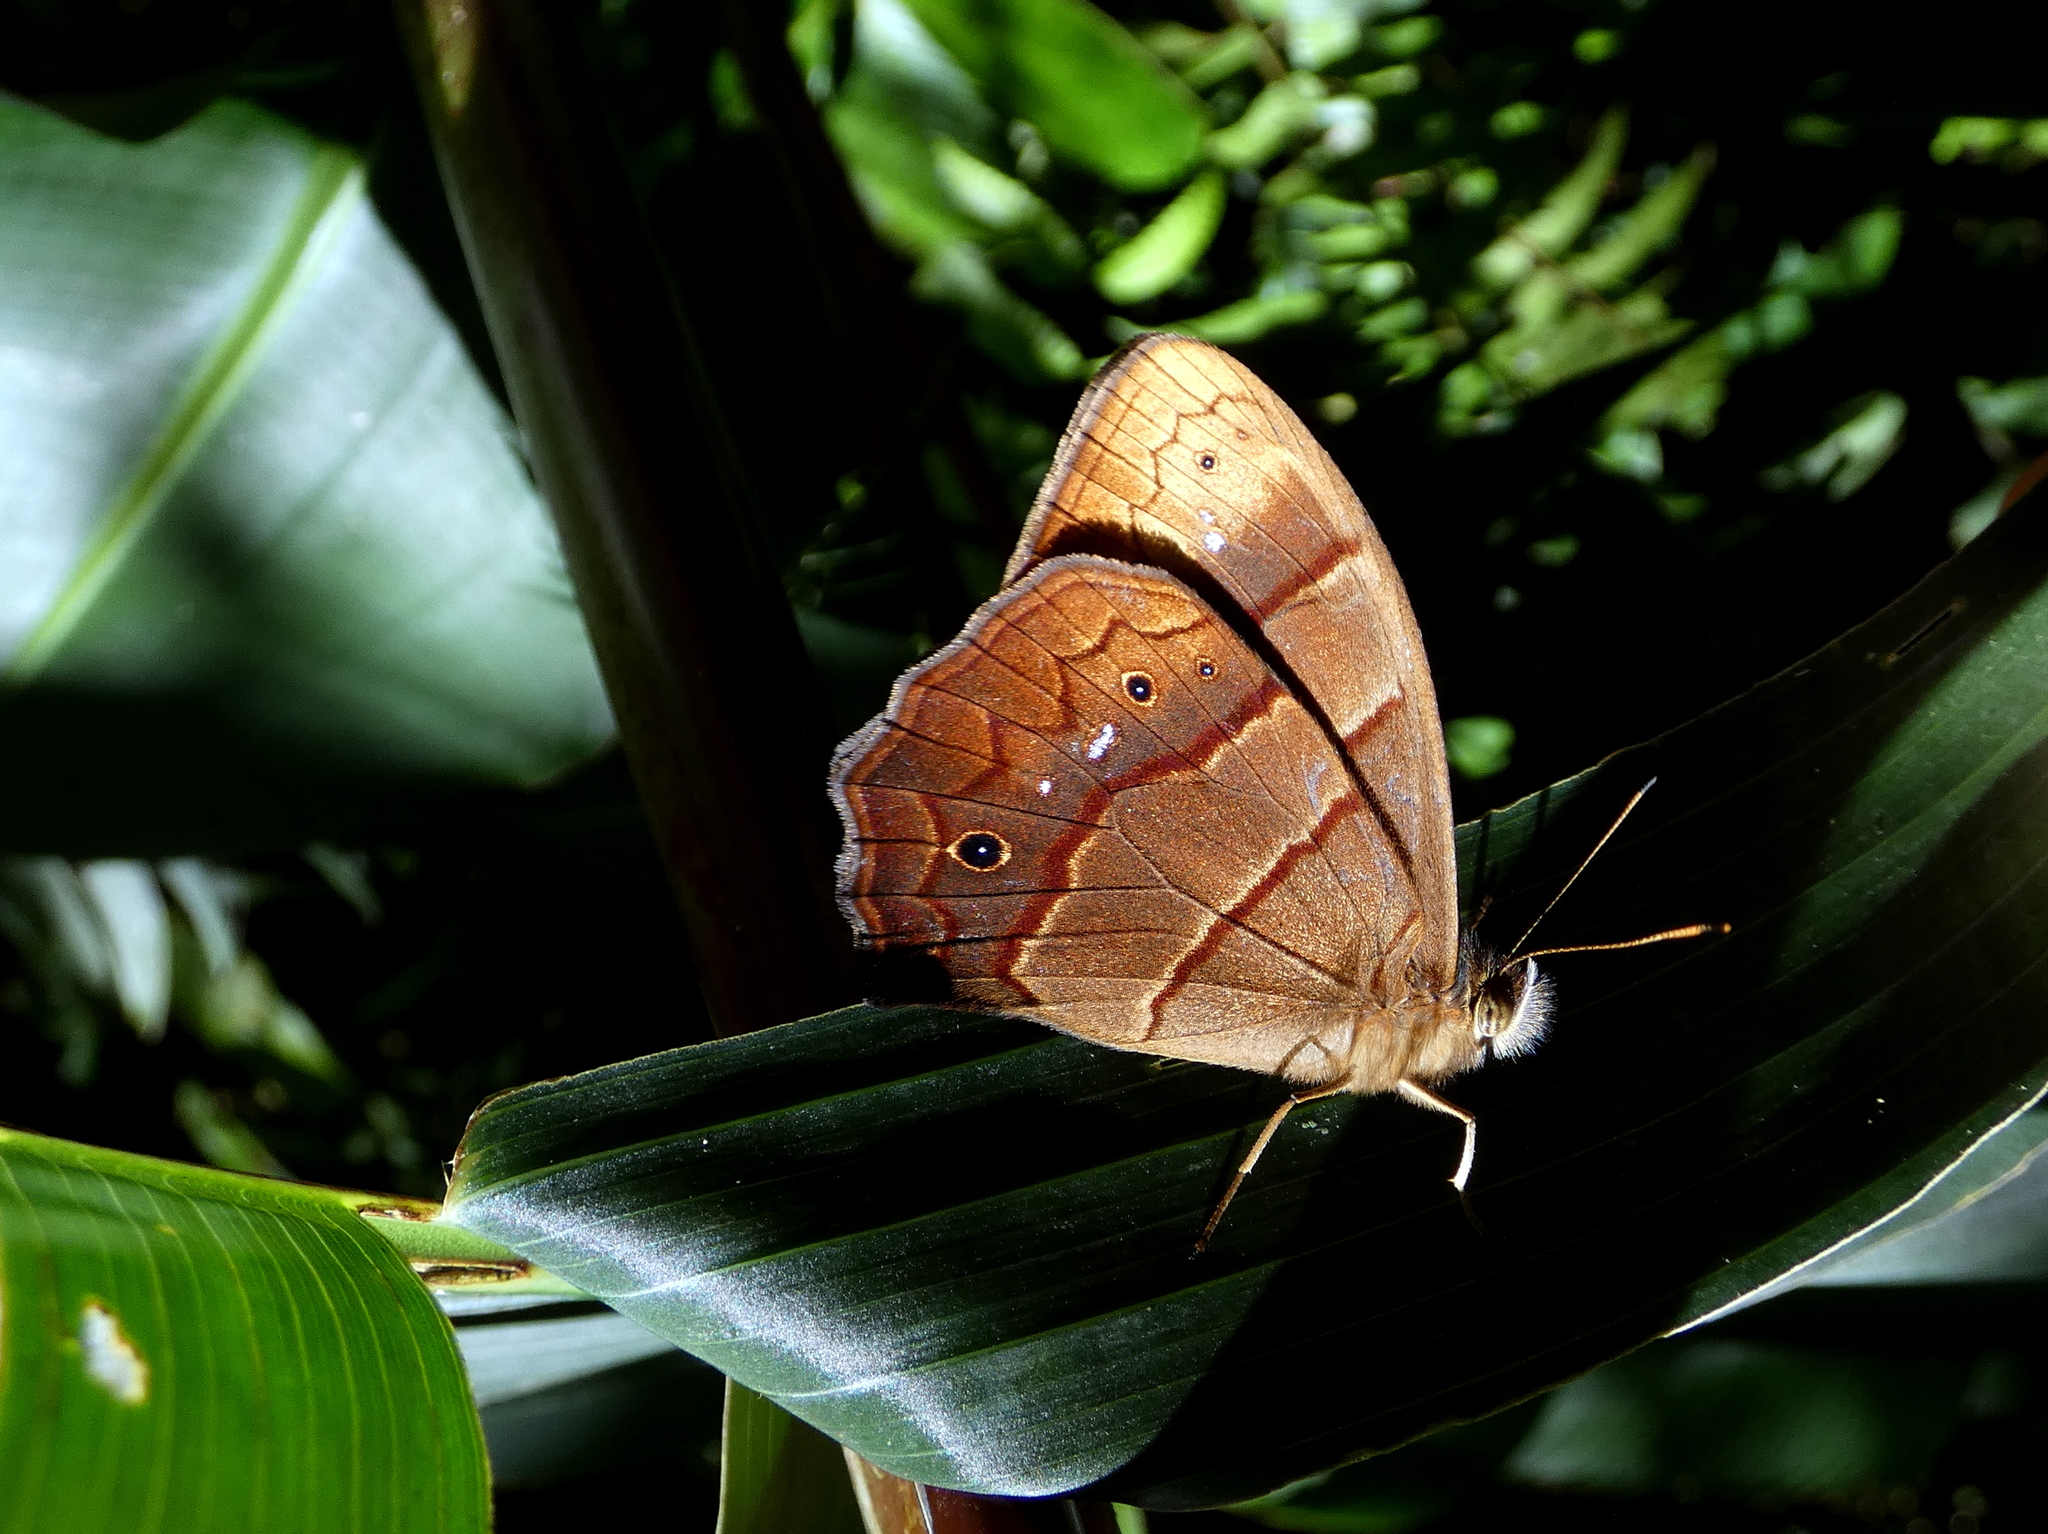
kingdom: Animalia
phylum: Arthropoda
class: Insecta
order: Lepidoptera
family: Nymphalidae
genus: Satyrotaygetis
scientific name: Satyrotaygetis satyrina
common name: Wide-bordered satyr
